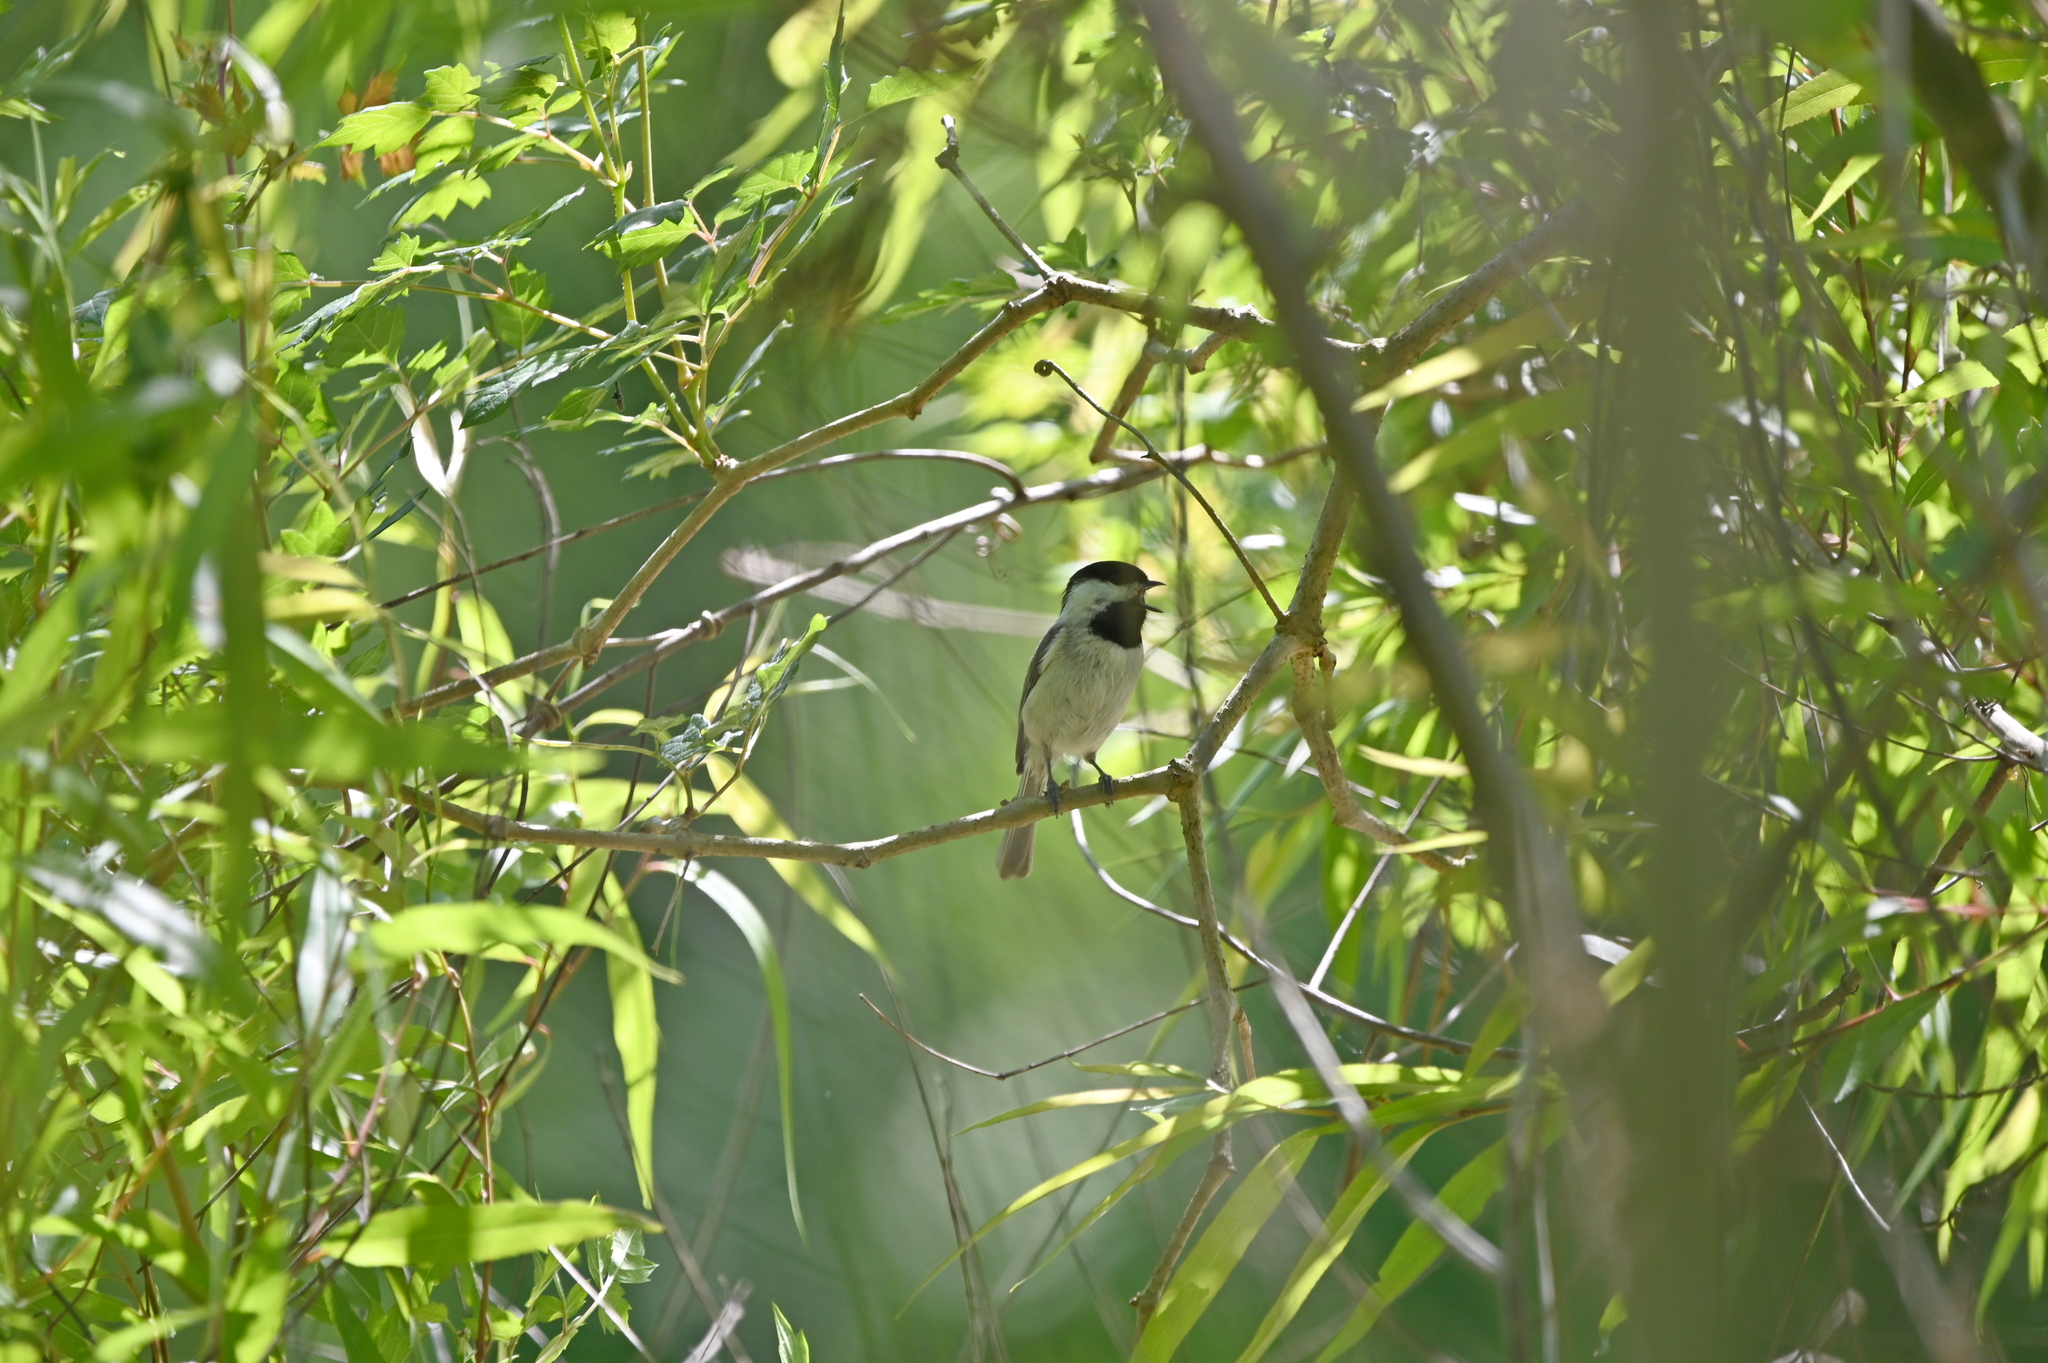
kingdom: Animalia
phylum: Chordata
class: Aves
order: Passeriformes
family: Paridae
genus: Poecile
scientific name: Poecile carolinensis
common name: Carolina chickadee
